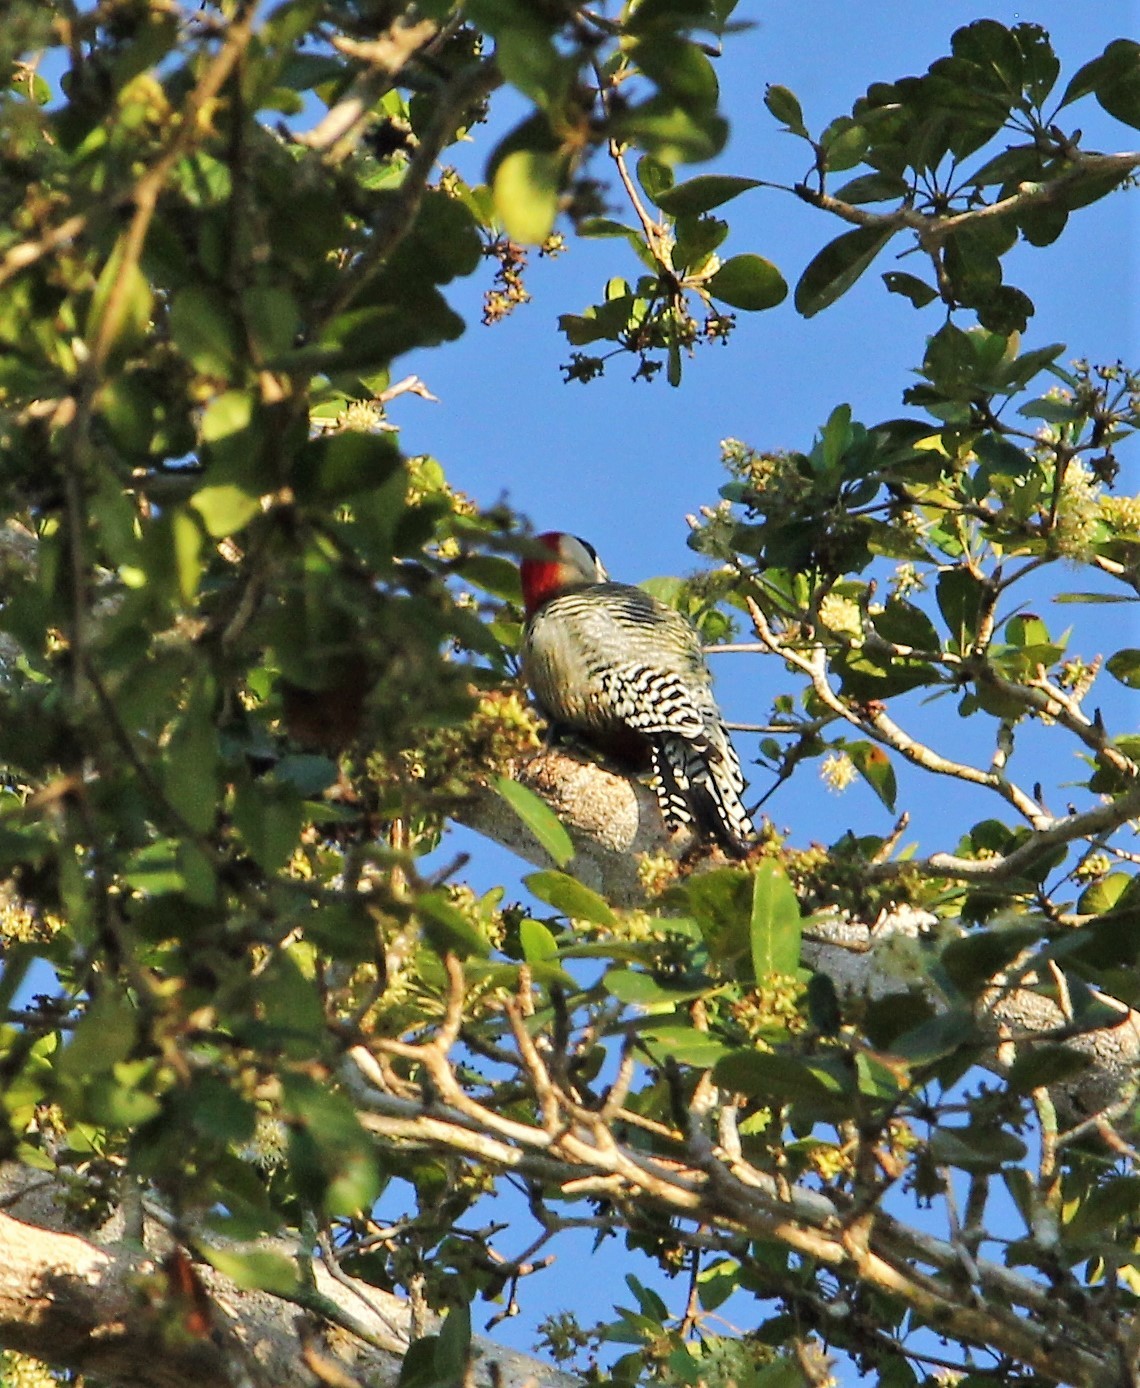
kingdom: Animalia
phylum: Chordata
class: Aves
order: Piciformes
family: Picidae
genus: Melanerpes
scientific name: Melanerpes superciliaris
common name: West indian woodpecker
